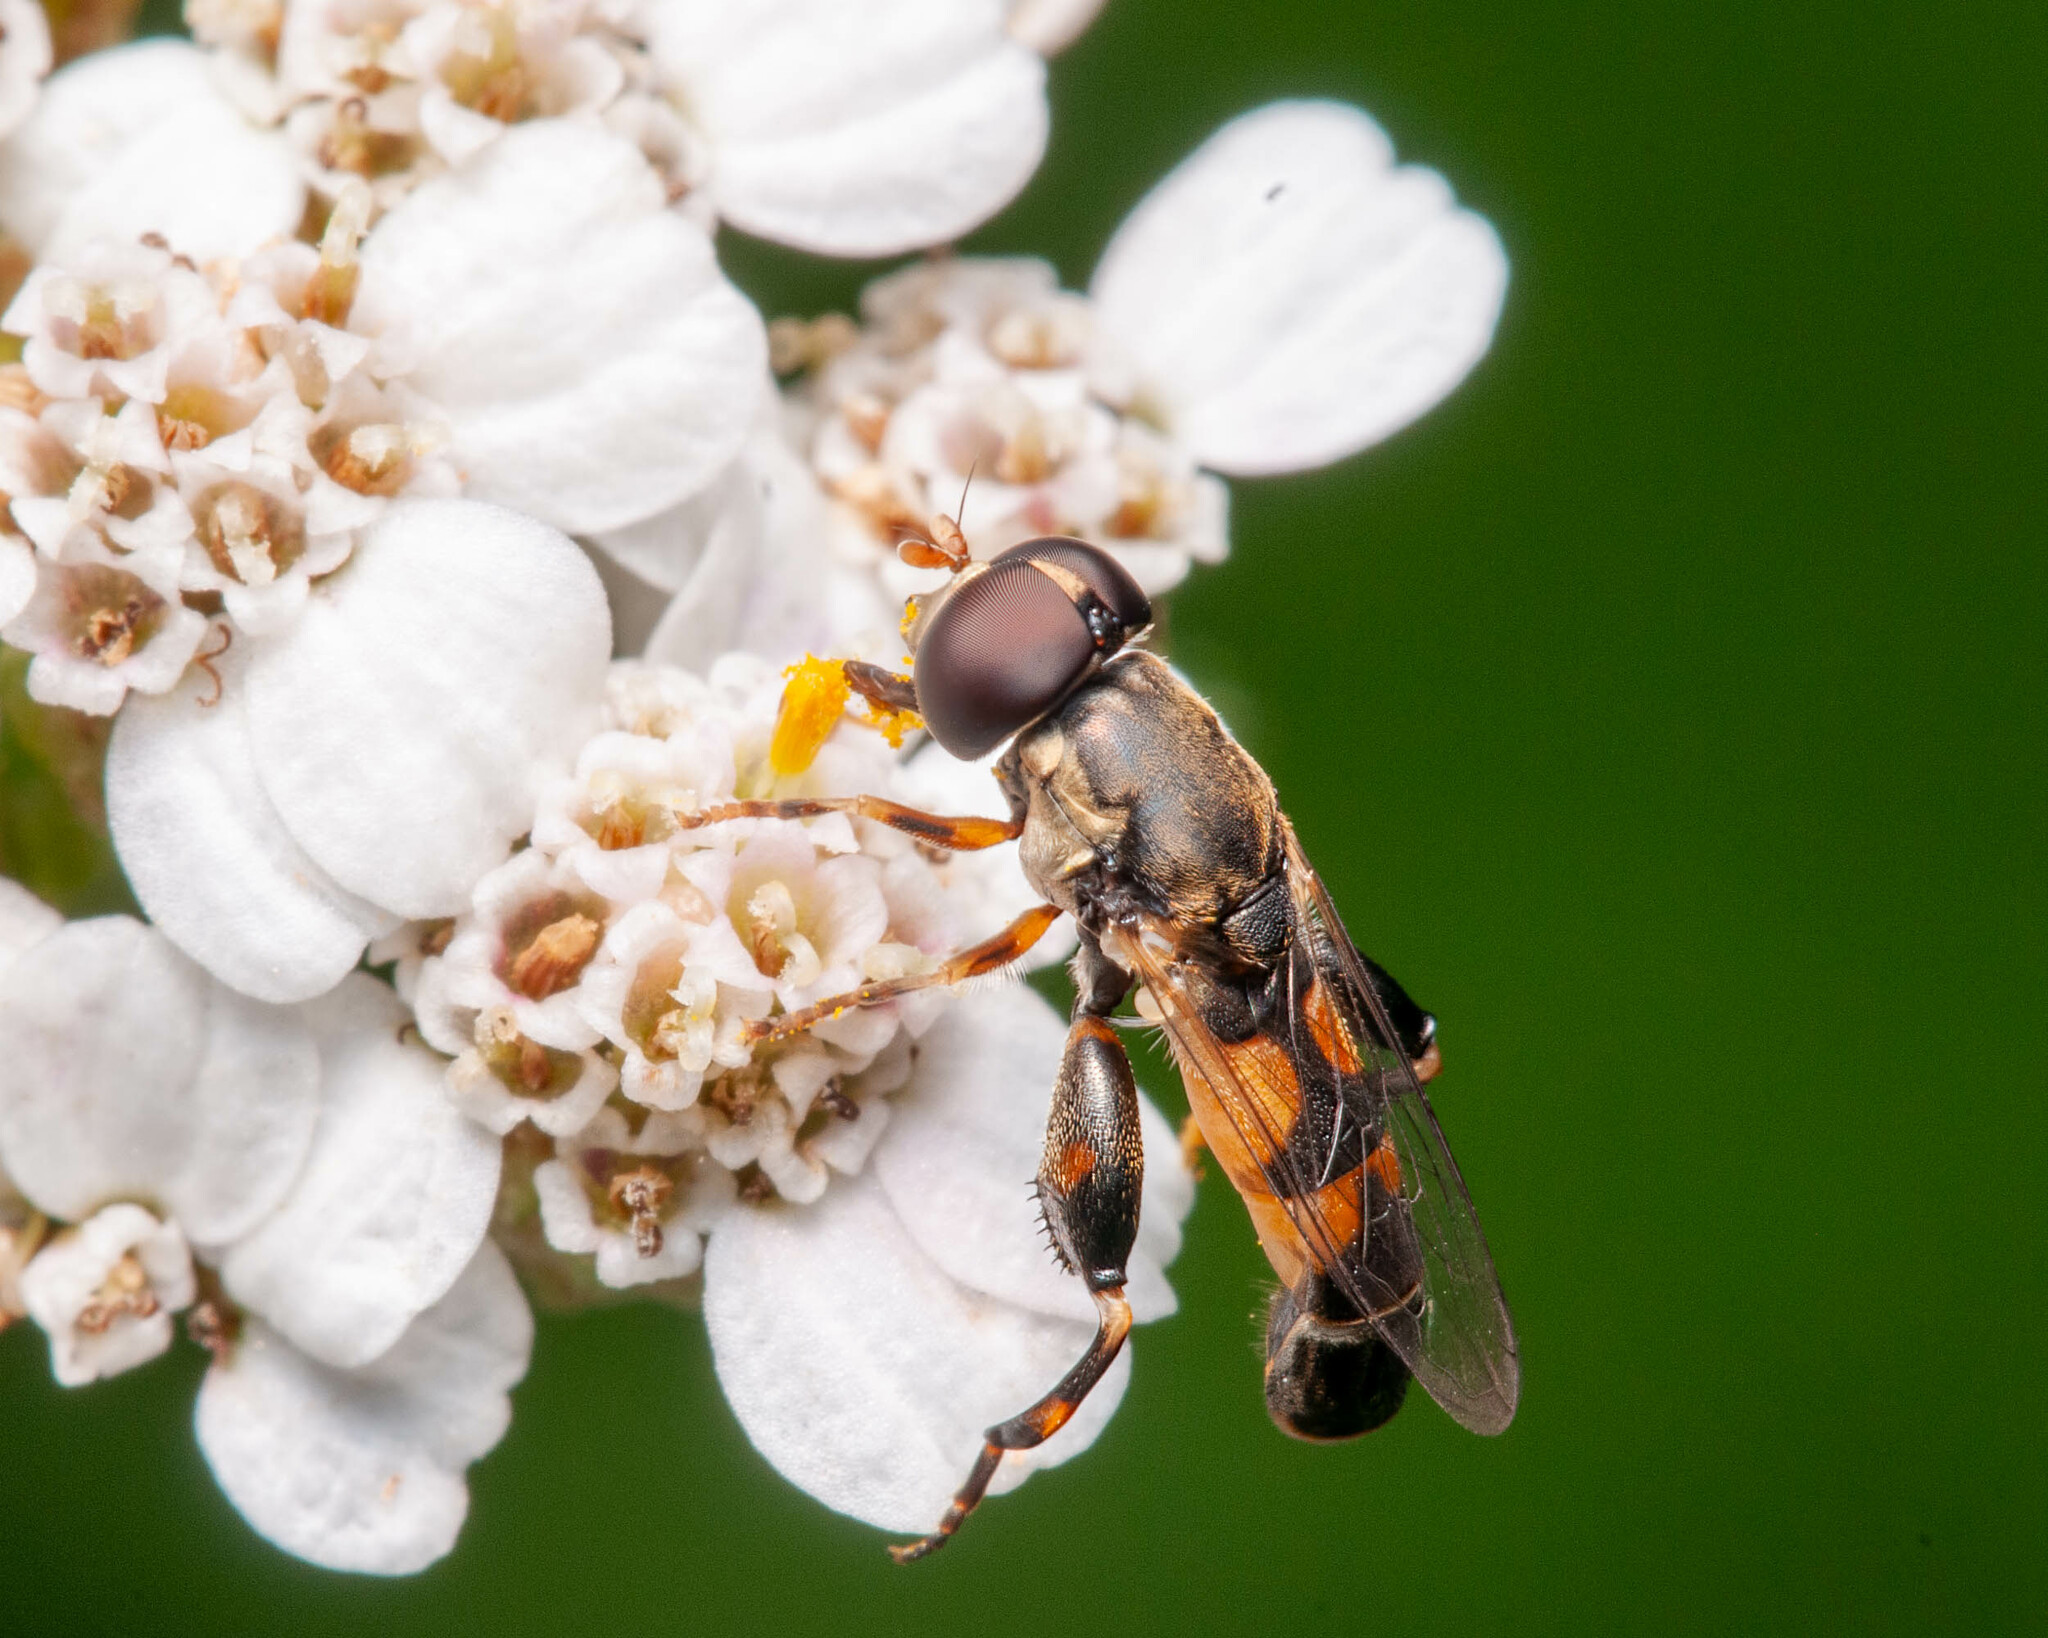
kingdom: Animalia
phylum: Arthropoda
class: Insecta
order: Diptera
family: Syrphidae
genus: Syritta
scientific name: Syritta pipiens
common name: Hover fly
